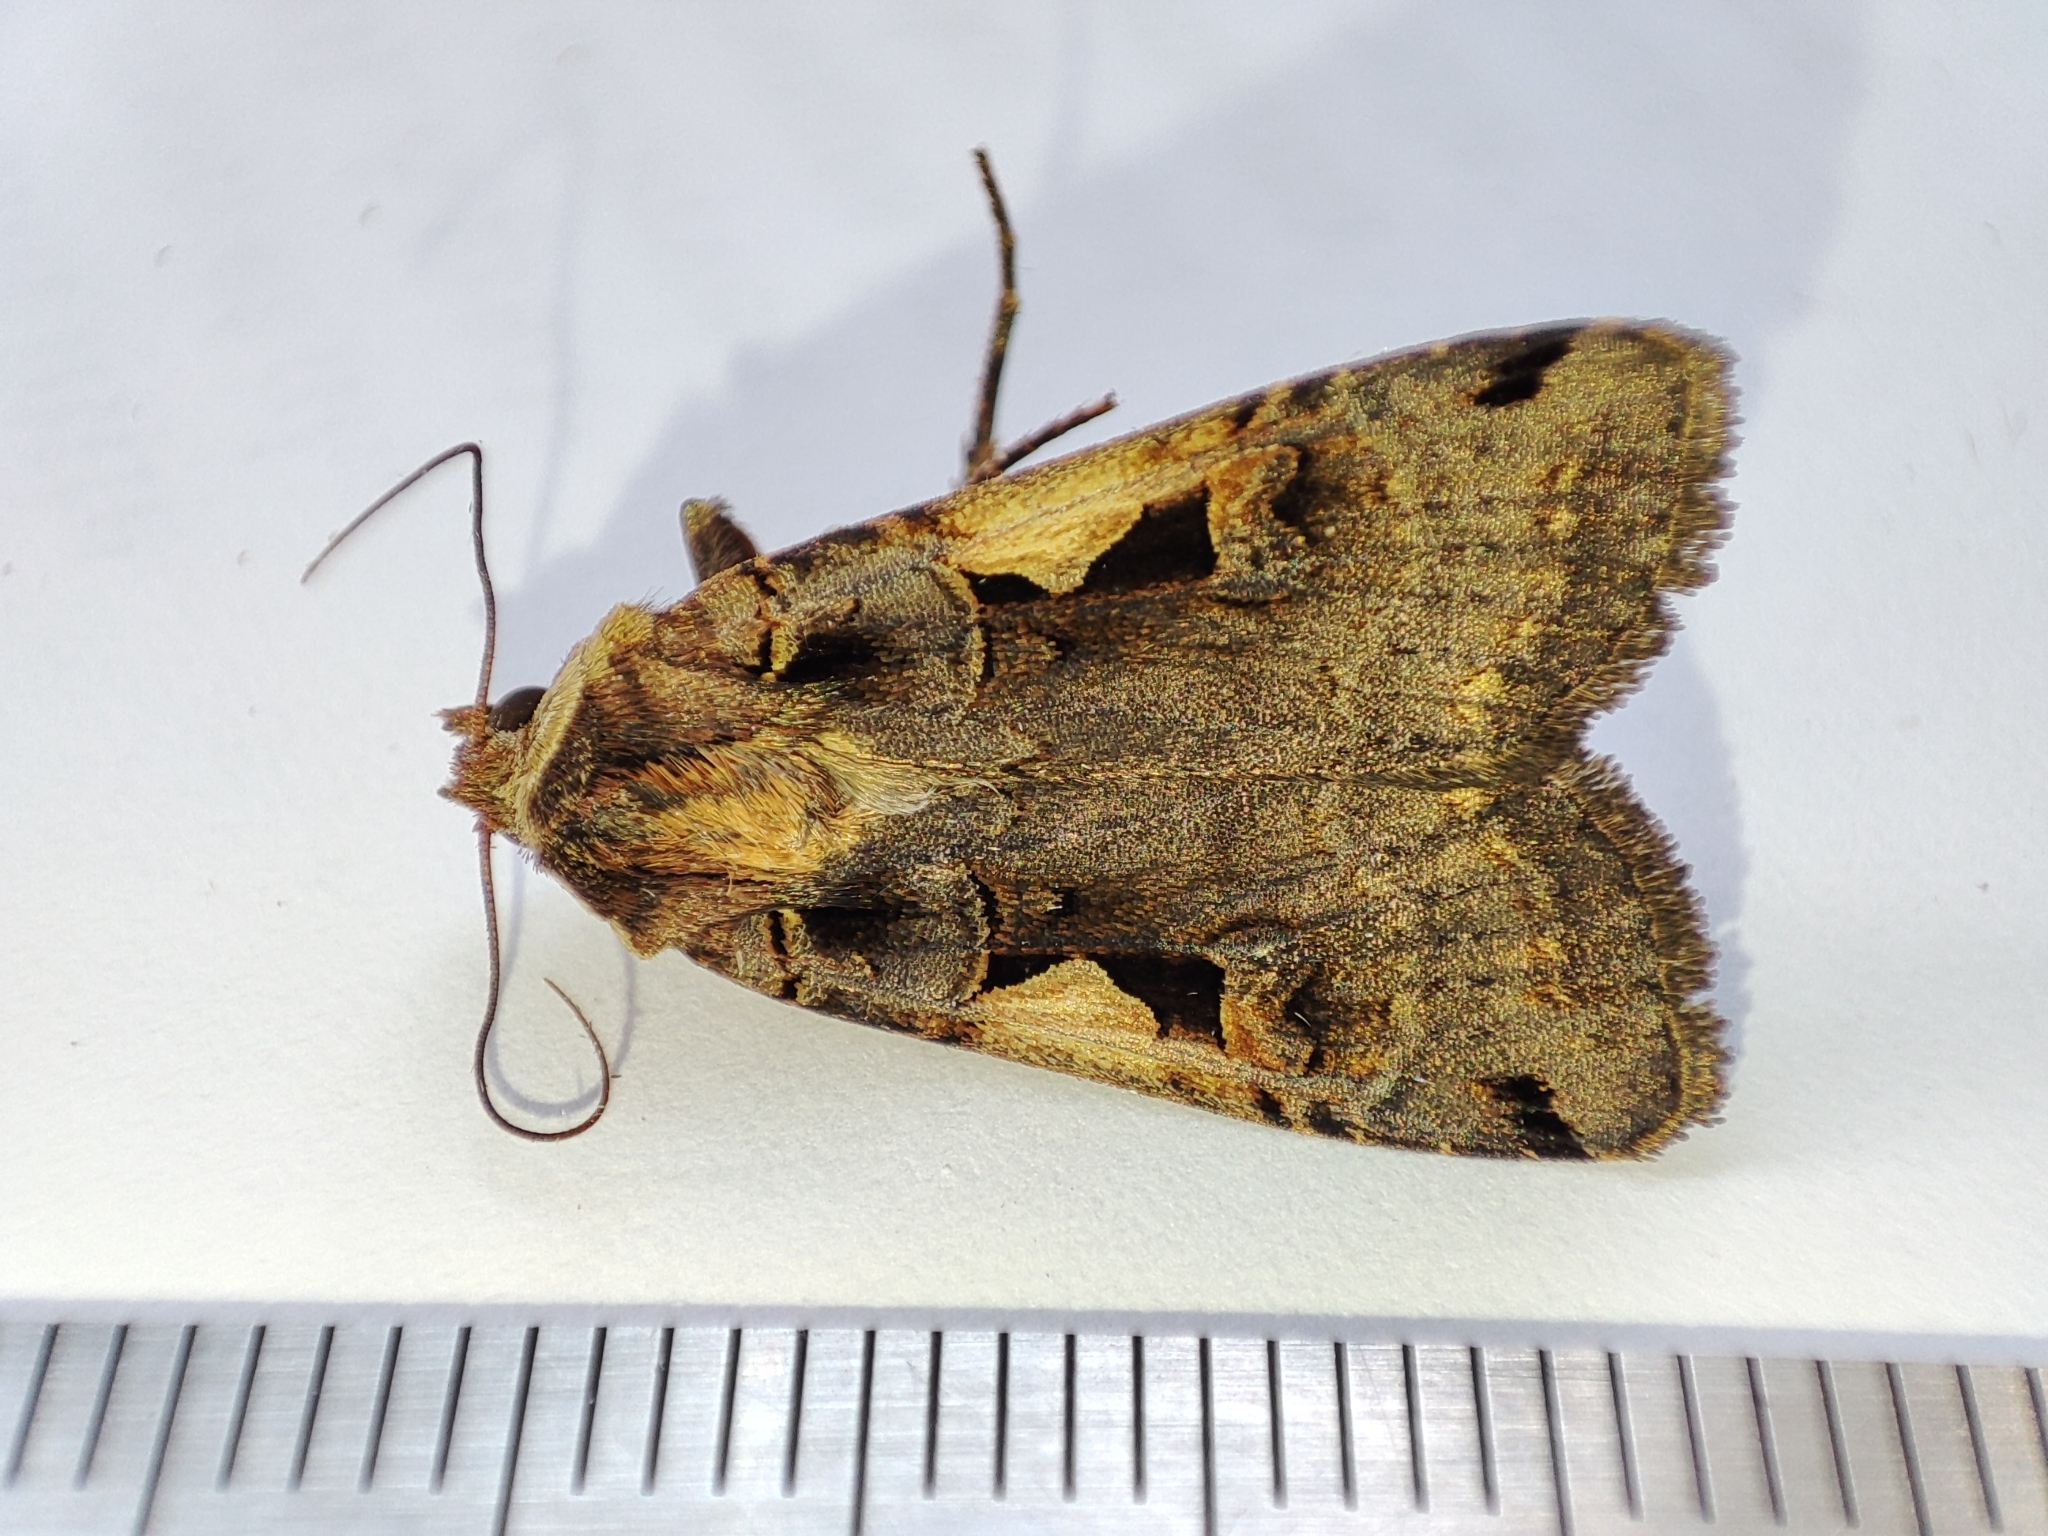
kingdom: Animalia
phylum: Arthropoda
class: Insecta
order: Lepidoptera
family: Noctuidae
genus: Xestia
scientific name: Xestia c-nigrum
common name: Setaceous hebrew character
